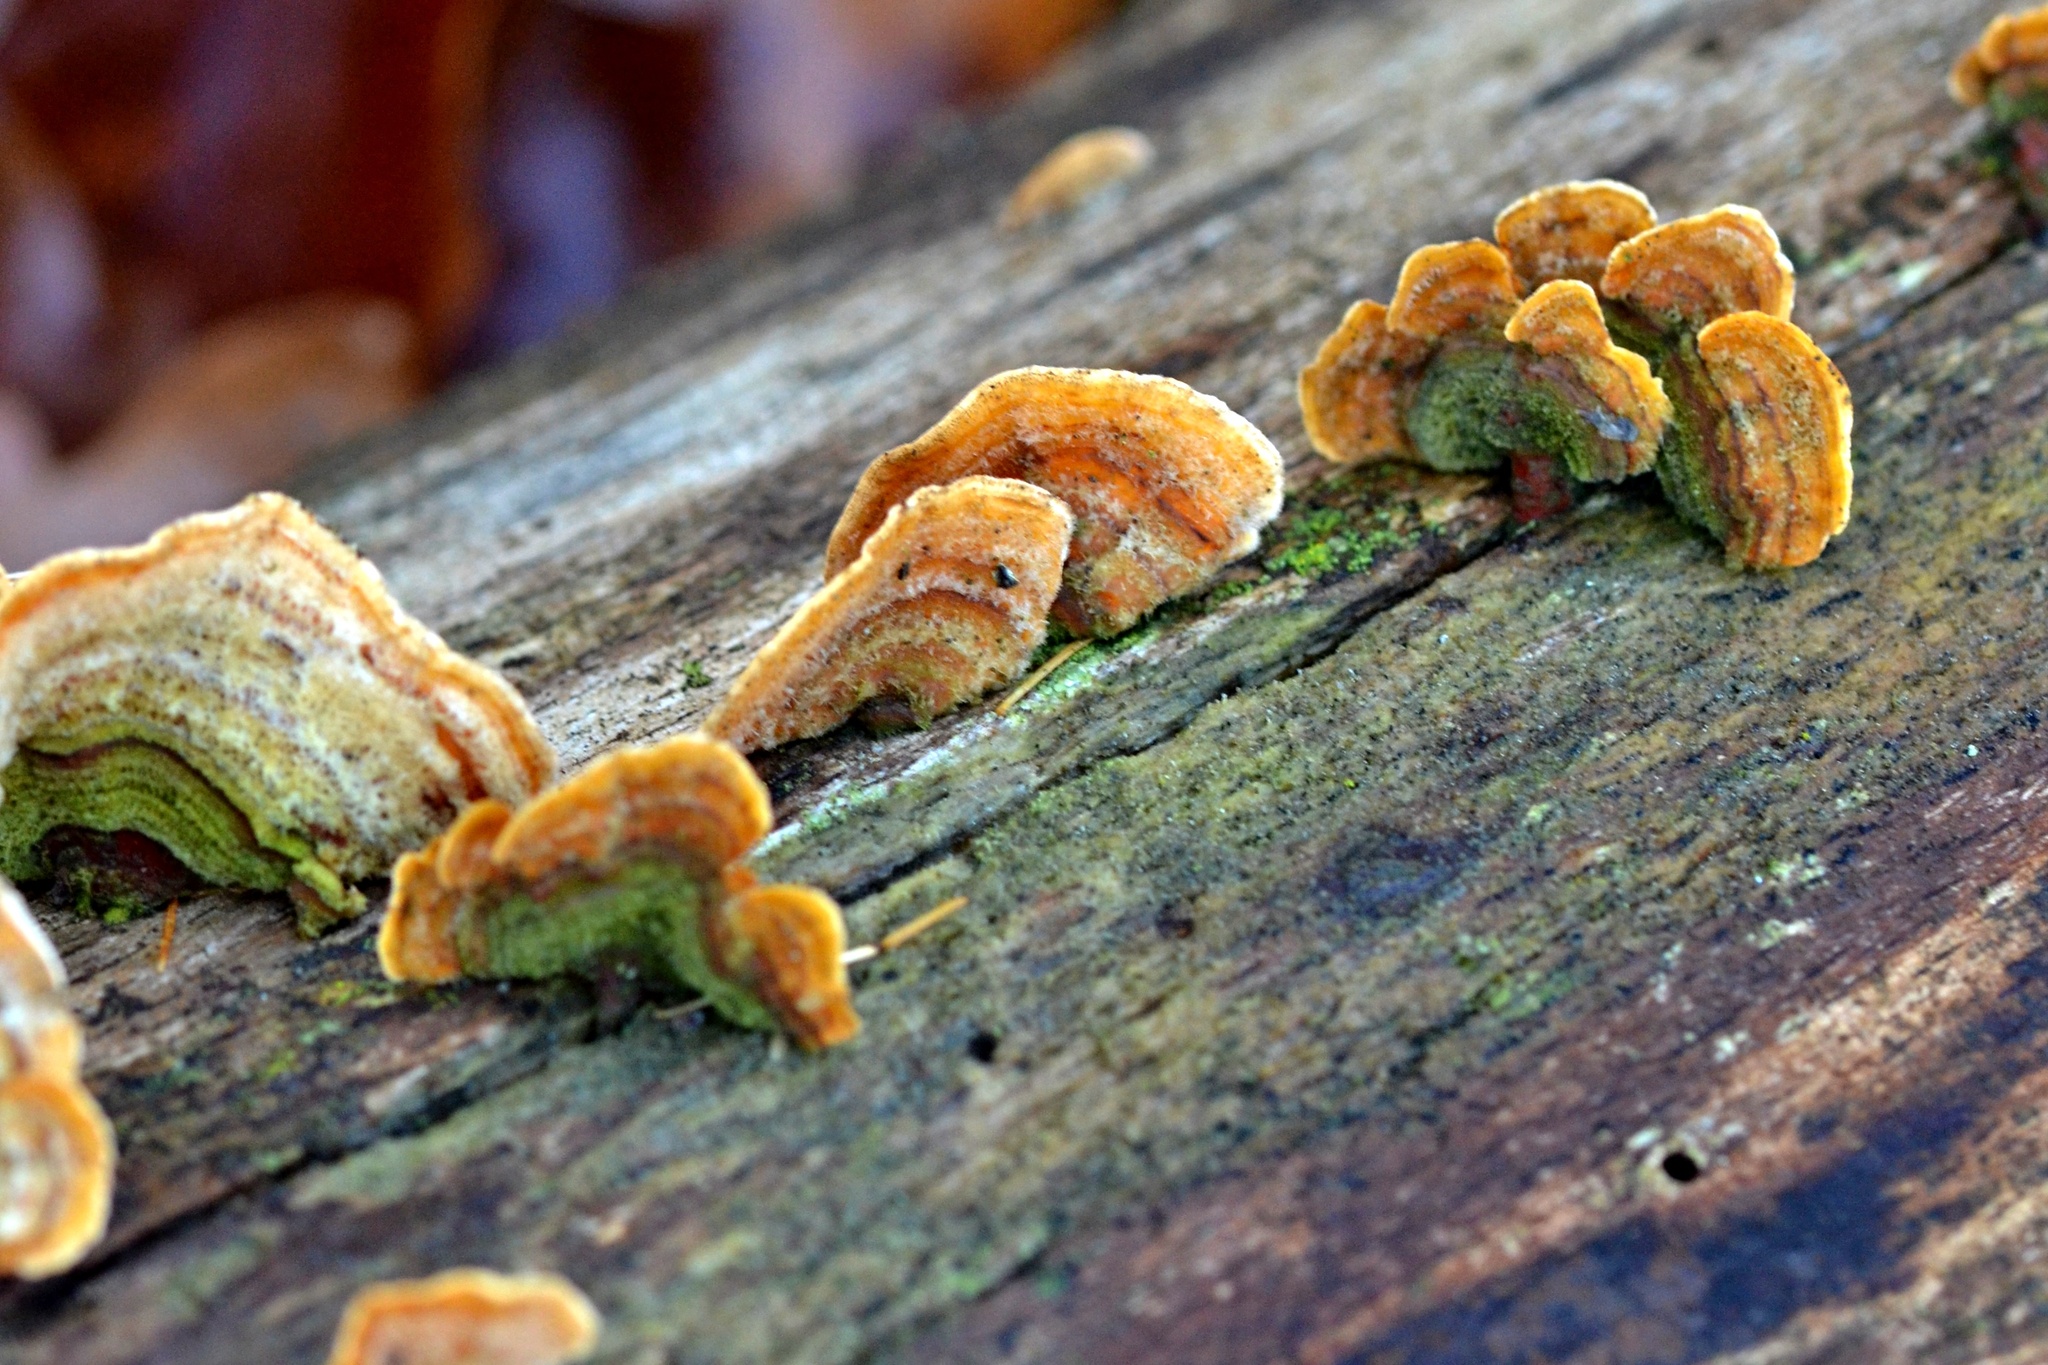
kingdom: Fungi
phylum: Basidiomycota
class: Agaricomycetes
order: Russulales
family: Stereaceae
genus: Stereum
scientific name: Stereum hirsutum
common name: Hairy curtain crust
